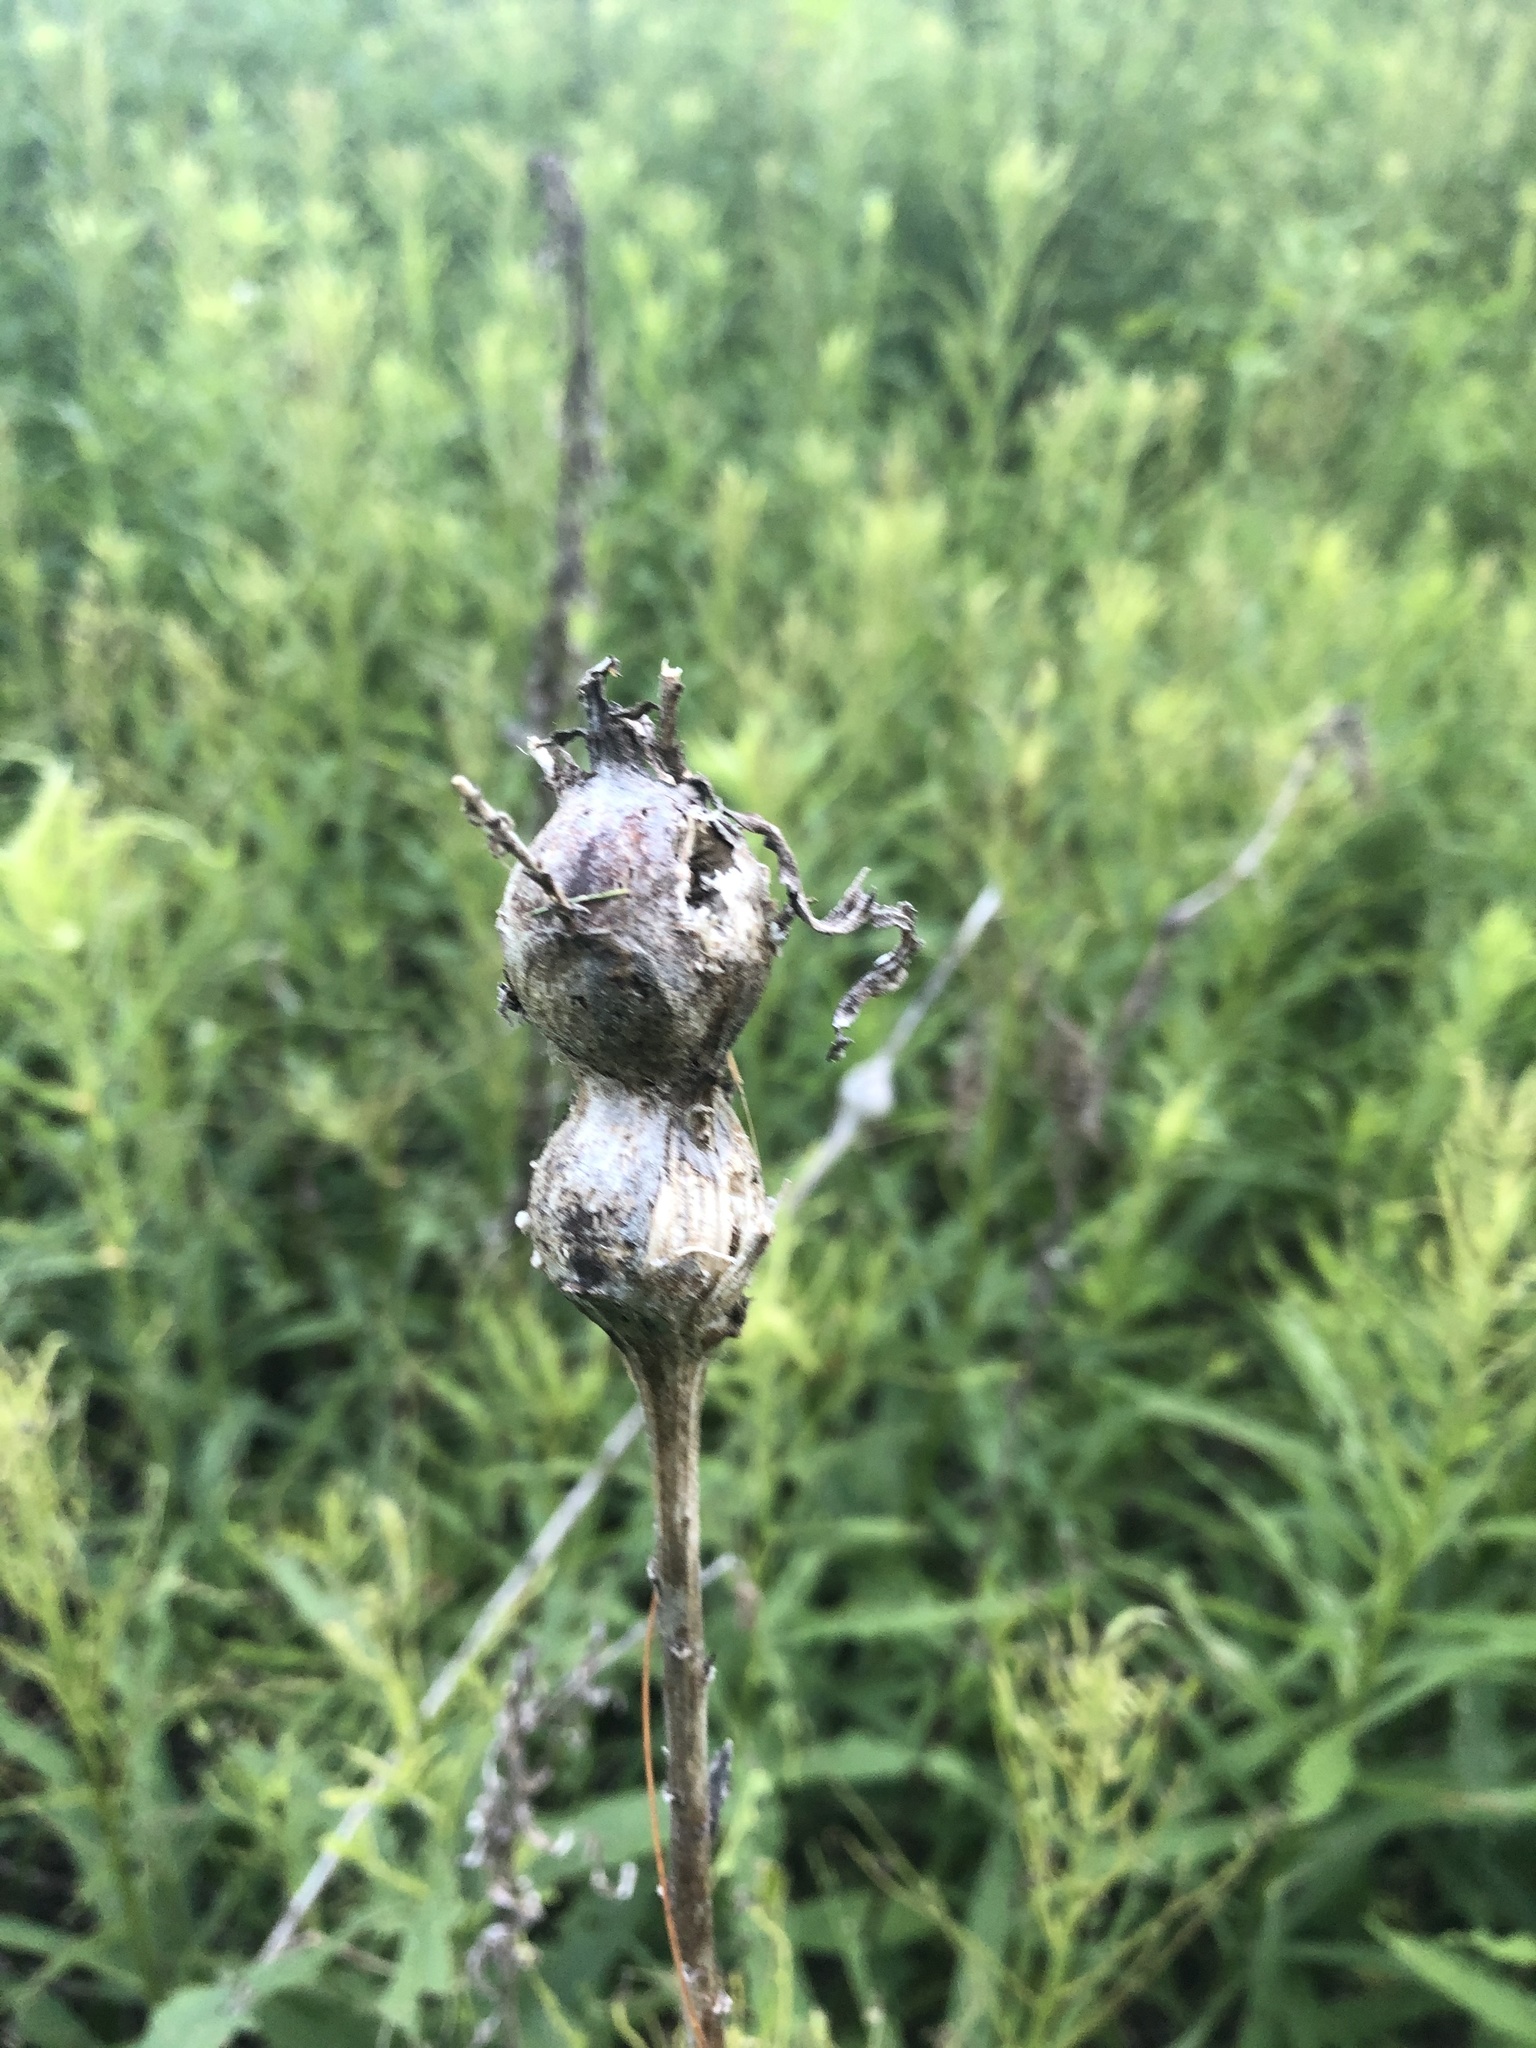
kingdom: Animalia
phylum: Arthropoda
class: Insecta
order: Diptera
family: Tephritidae
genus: Eurosta
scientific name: Eurosta solidaginis
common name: Goldenrod gall fly
